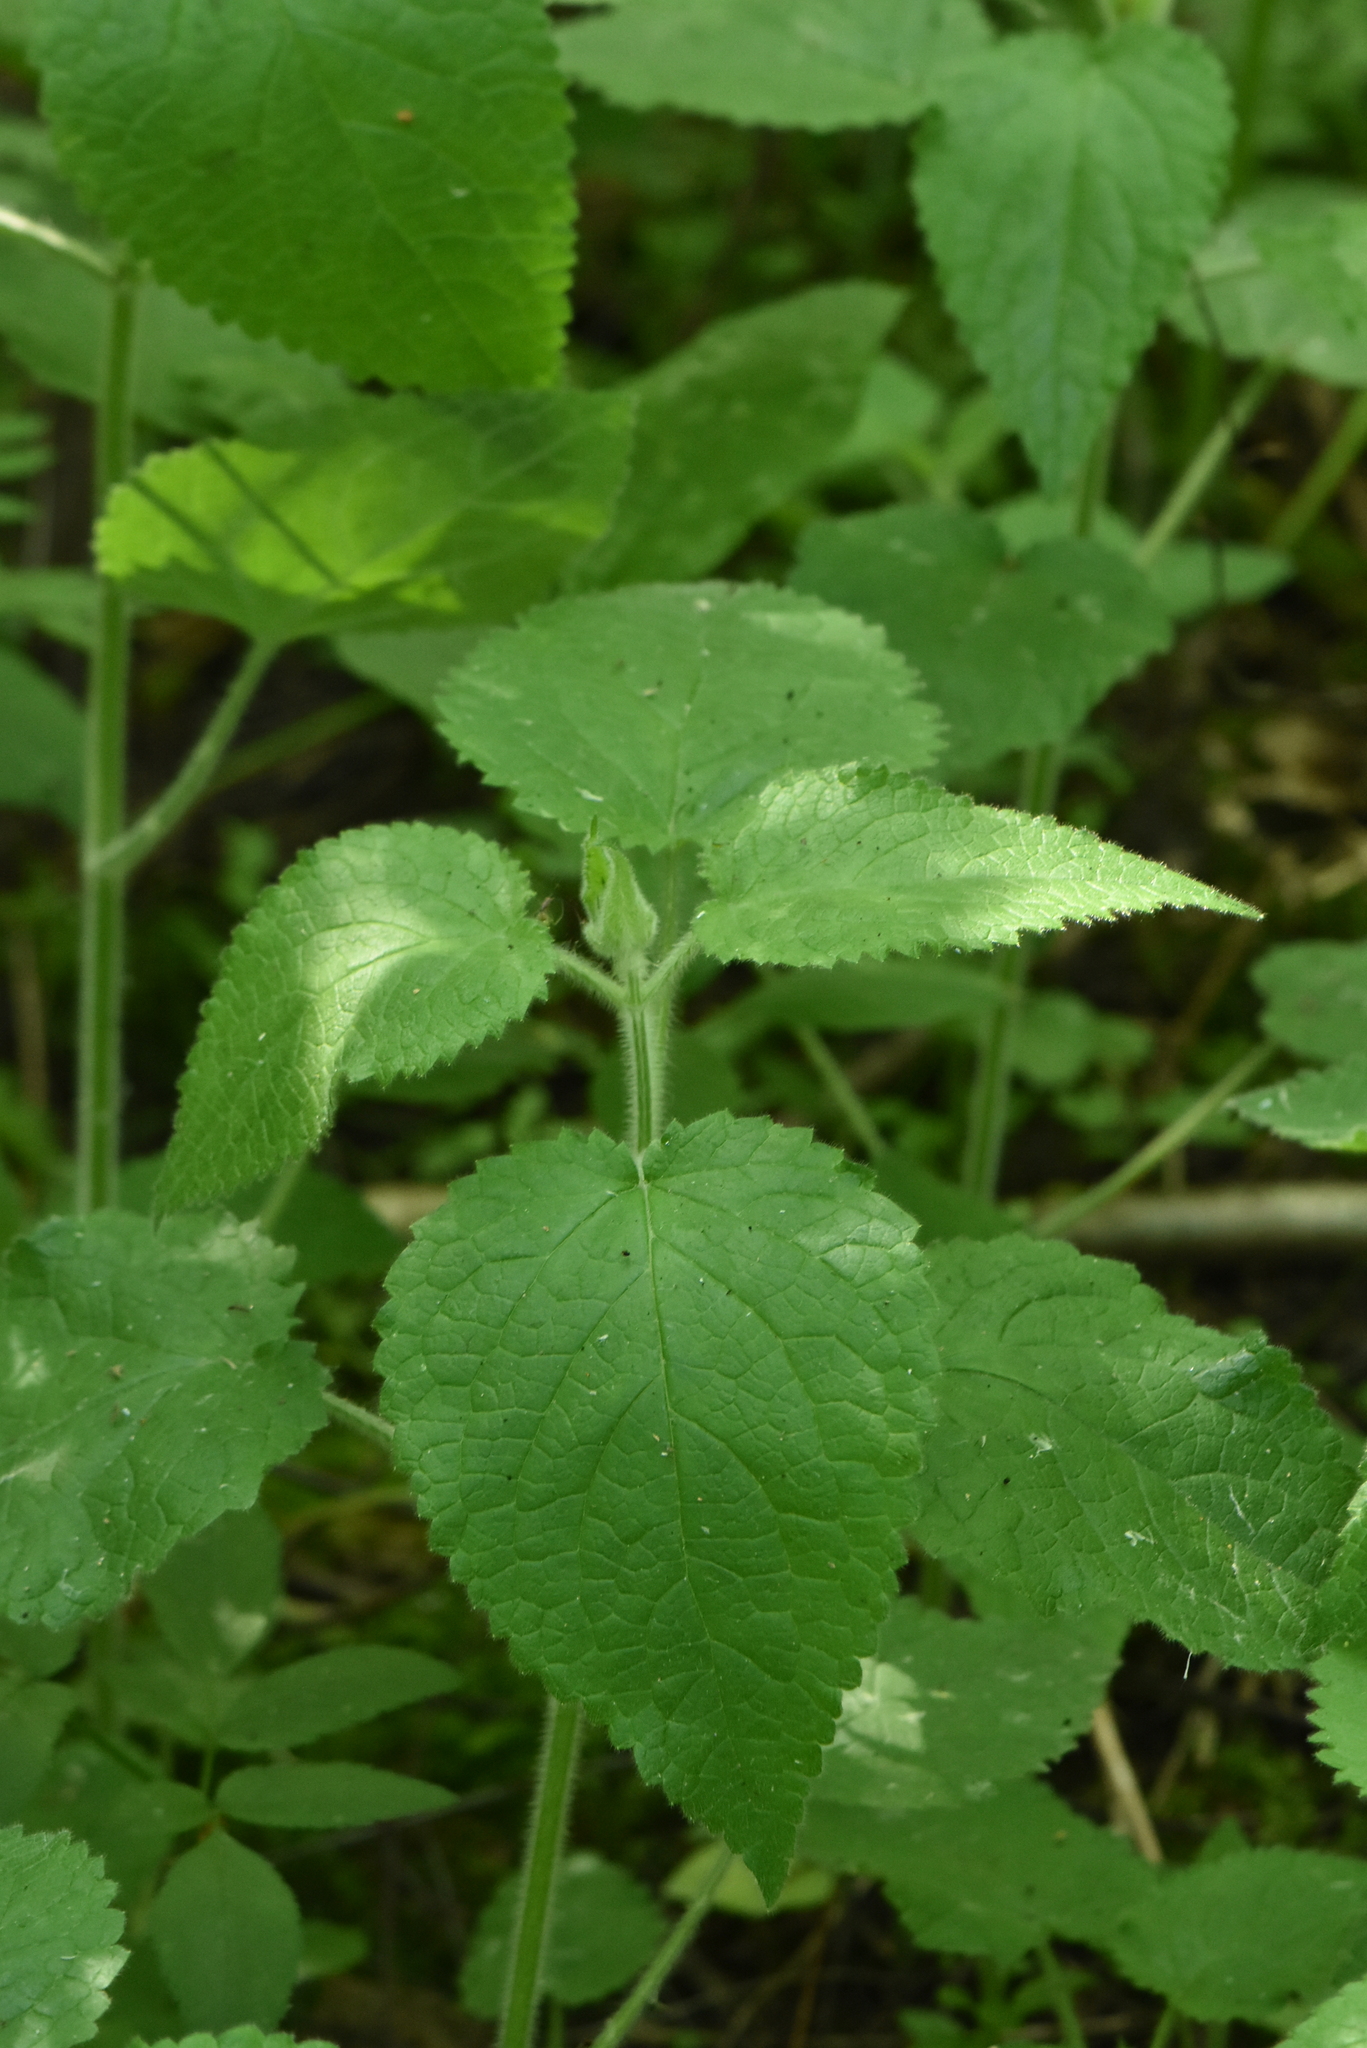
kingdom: Plantae
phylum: Tracheophyta
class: Magnoliopsida
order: Lamiales
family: Lamiaceae
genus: Stachys
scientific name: Stachys sylvatica
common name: Hedge woundwort
